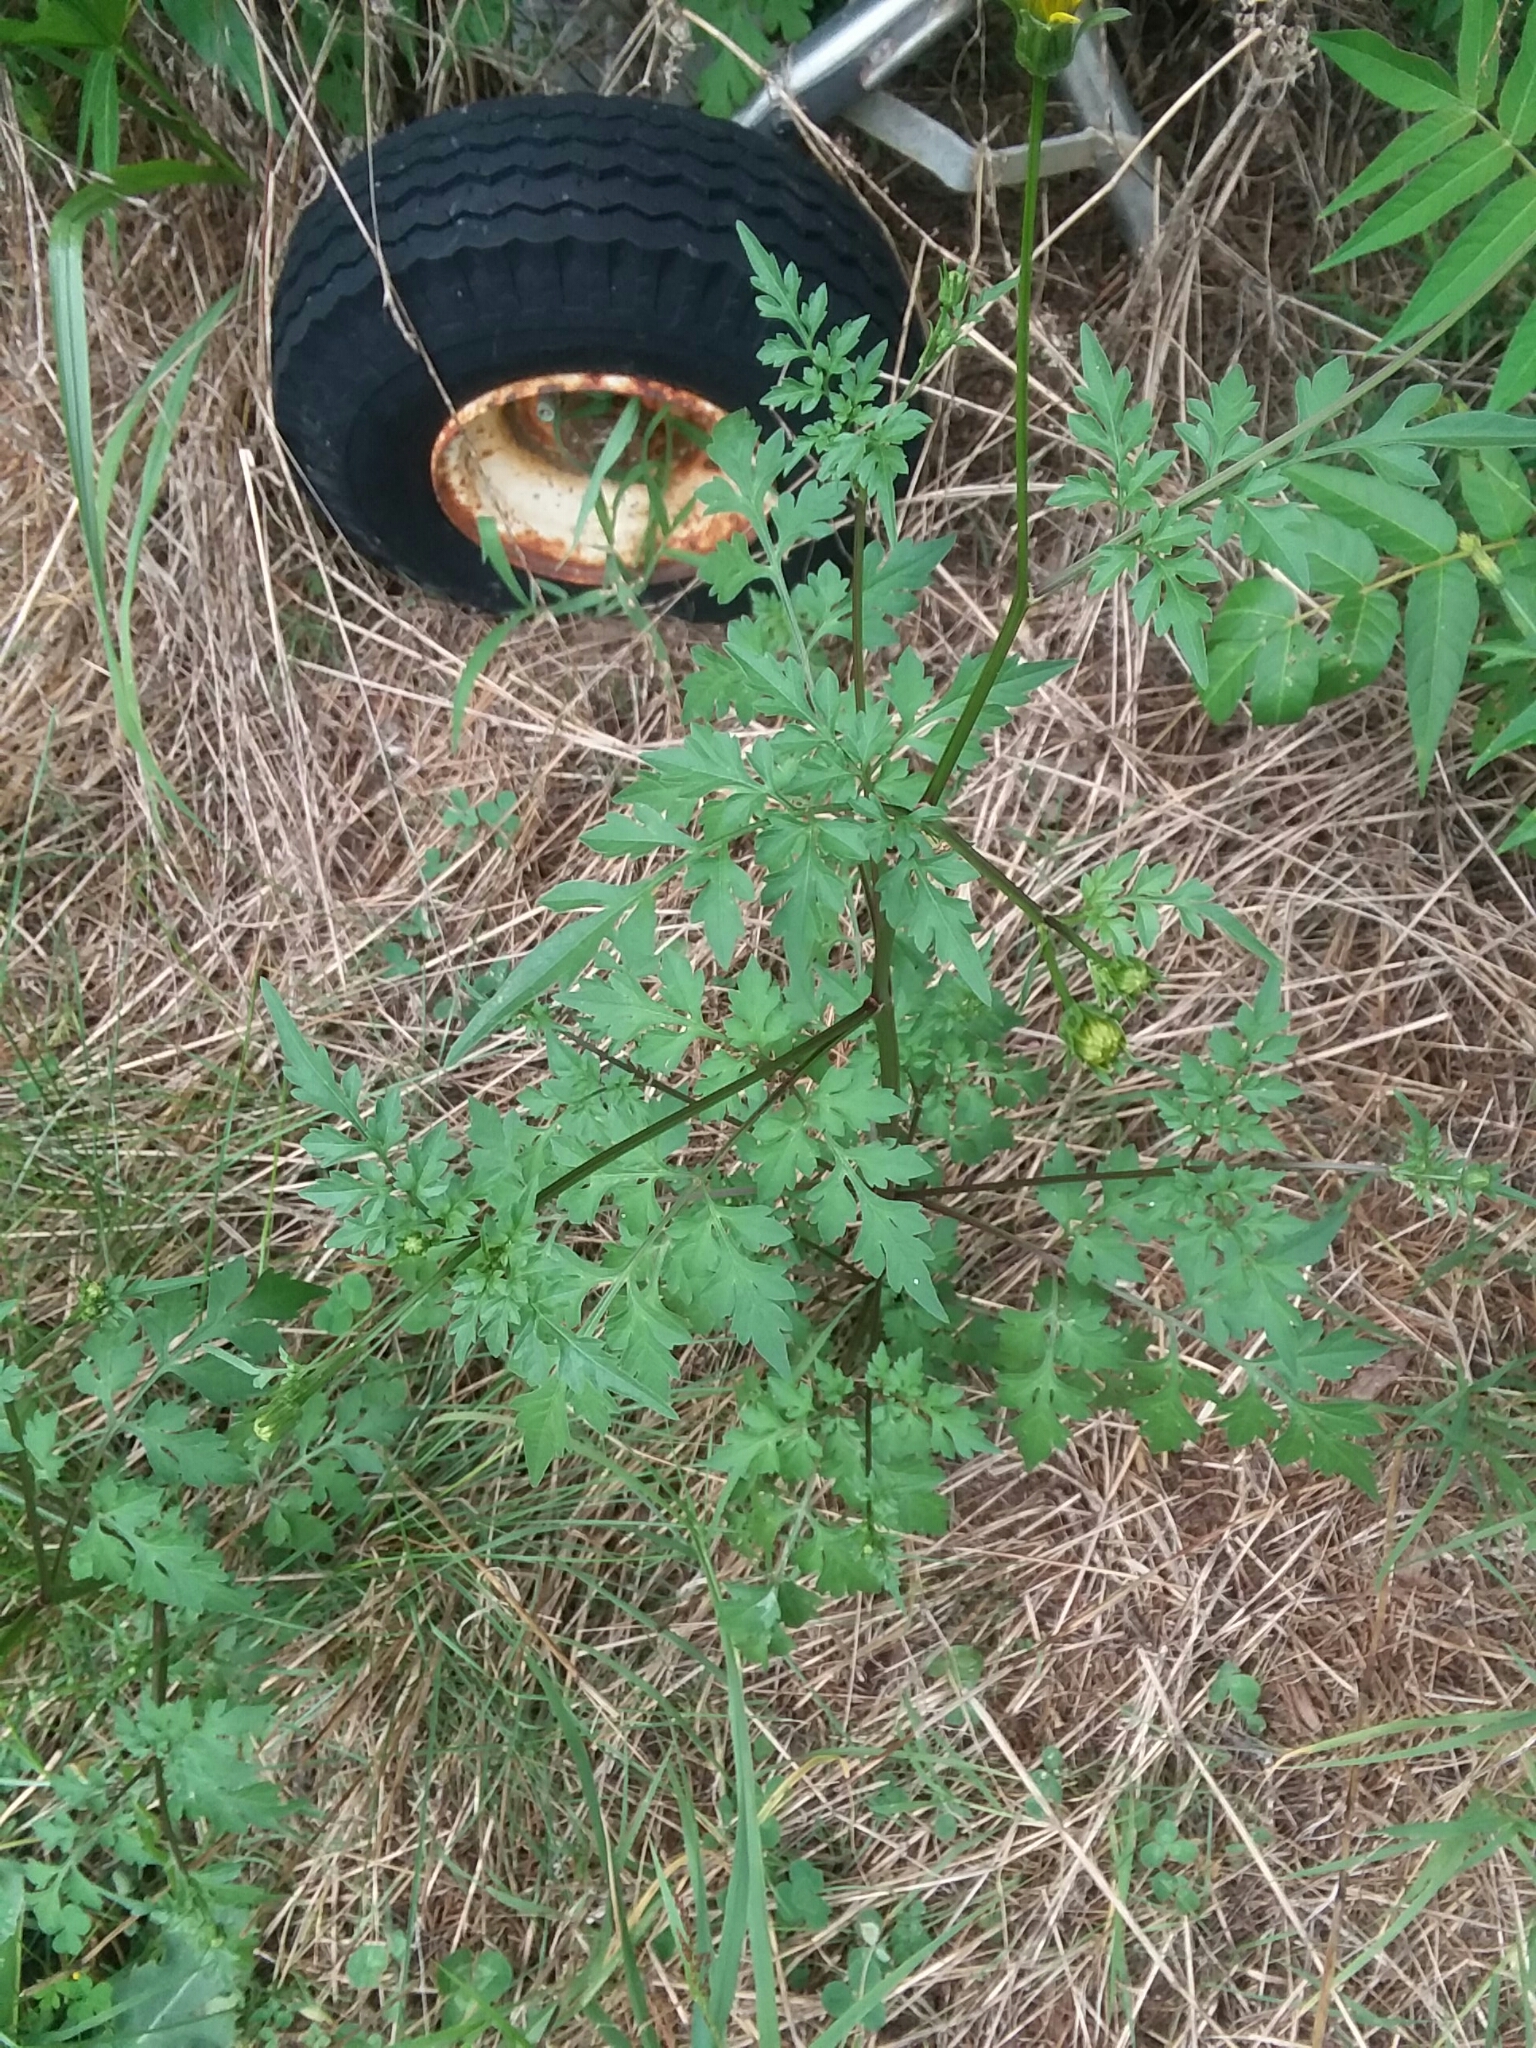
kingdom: Plantae
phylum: Tracheophyta
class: Magnoliopsida
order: Asterales
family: Asteraceae
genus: Bidens
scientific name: Bidens bipinnata
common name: Spanish-needles
